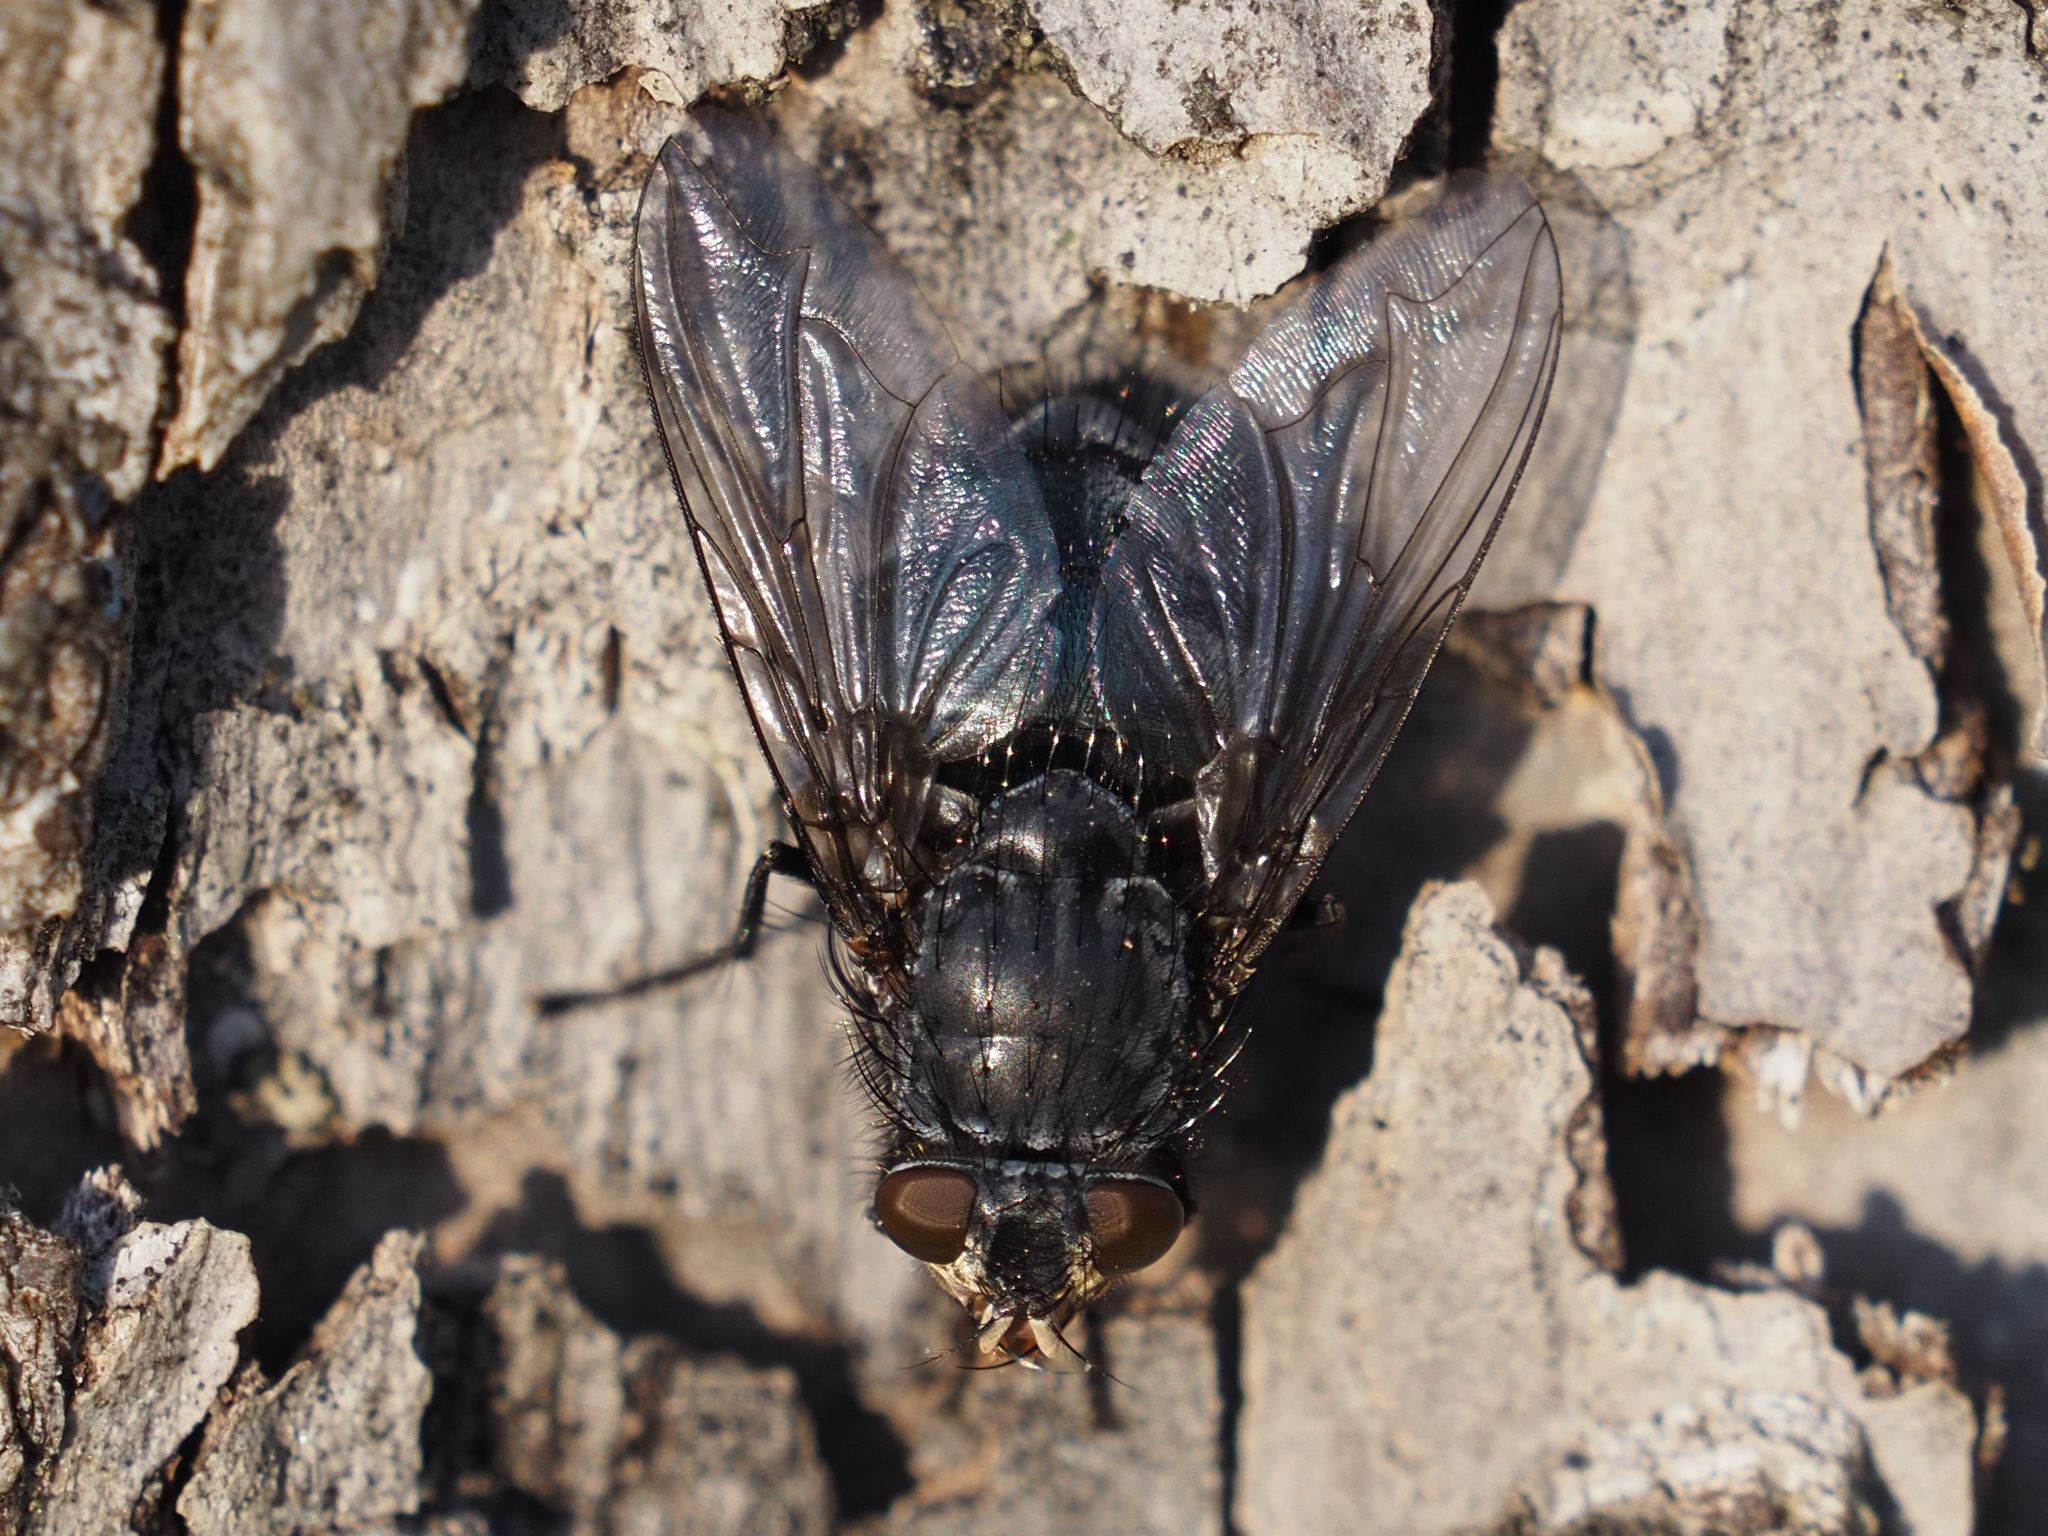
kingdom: Animalia
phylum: Arthropoda
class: Insecta
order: Diptera
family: Calliphoridae
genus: Calliphora
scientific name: Calliphora vicina
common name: Common blow flie
